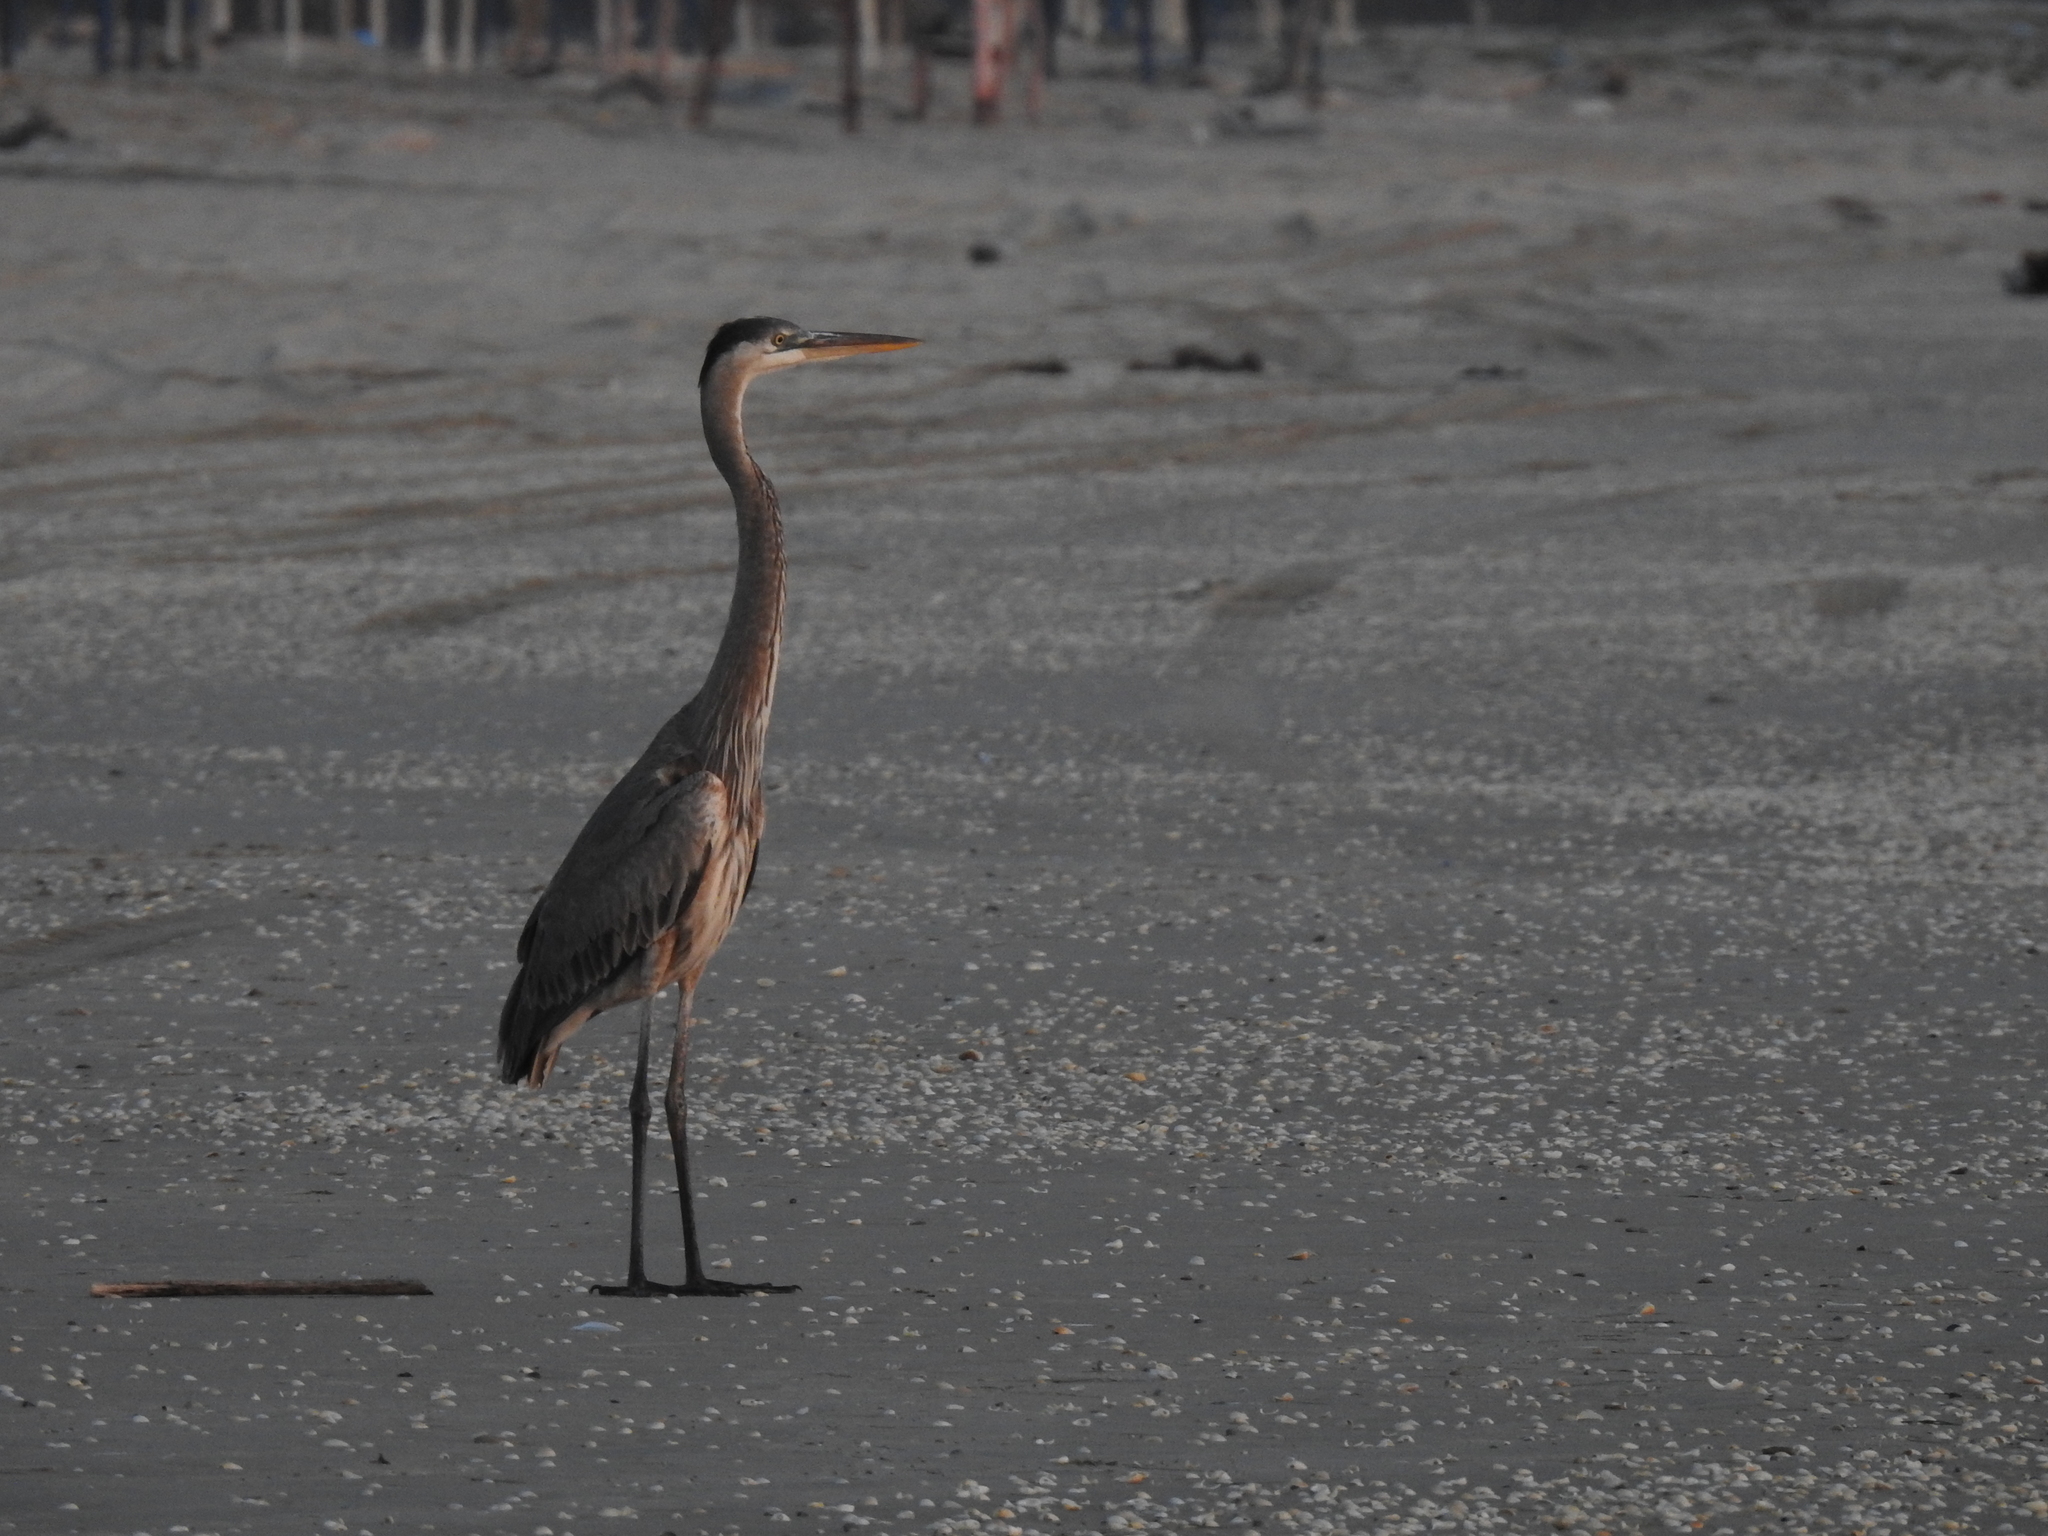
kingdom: Animalia
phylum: Chordata
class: Aves
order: Pelecaniformes
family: Ardeidae
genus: Ardea
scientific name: Ardea herodias
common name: Great blue heron
